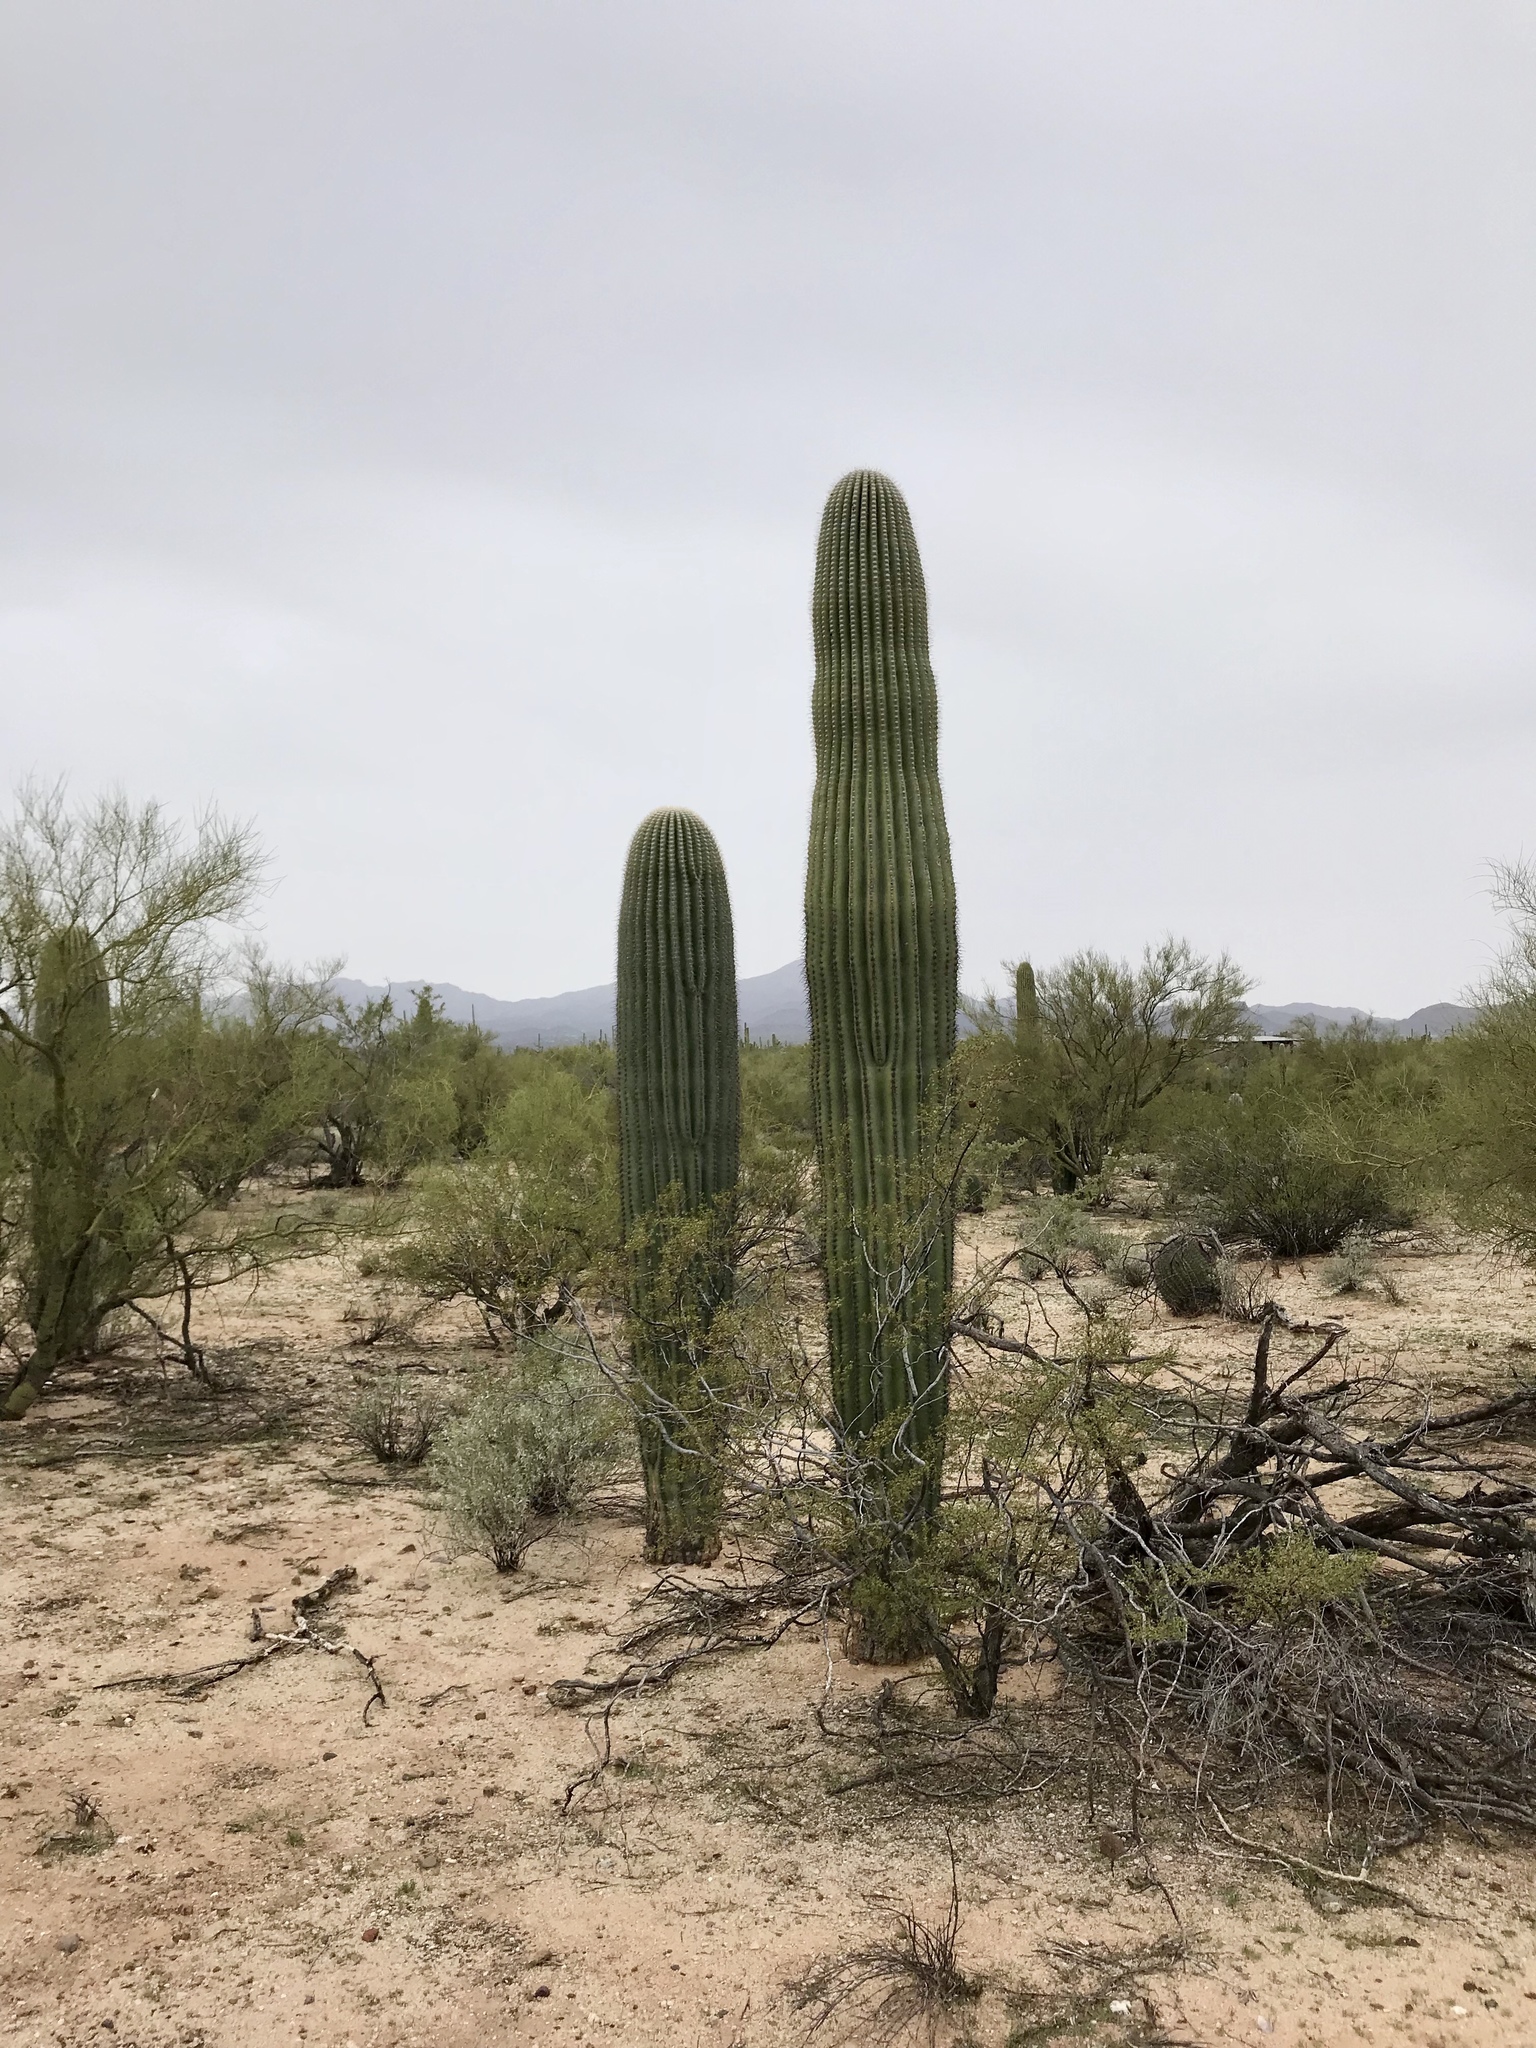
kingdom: Plantae
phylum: Tracheophyta
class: Magnoliopsida
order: Caryophyllales
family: Cactaceae
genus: Carnegiea
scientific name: Carnegiea gigantea
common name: Saguaro
